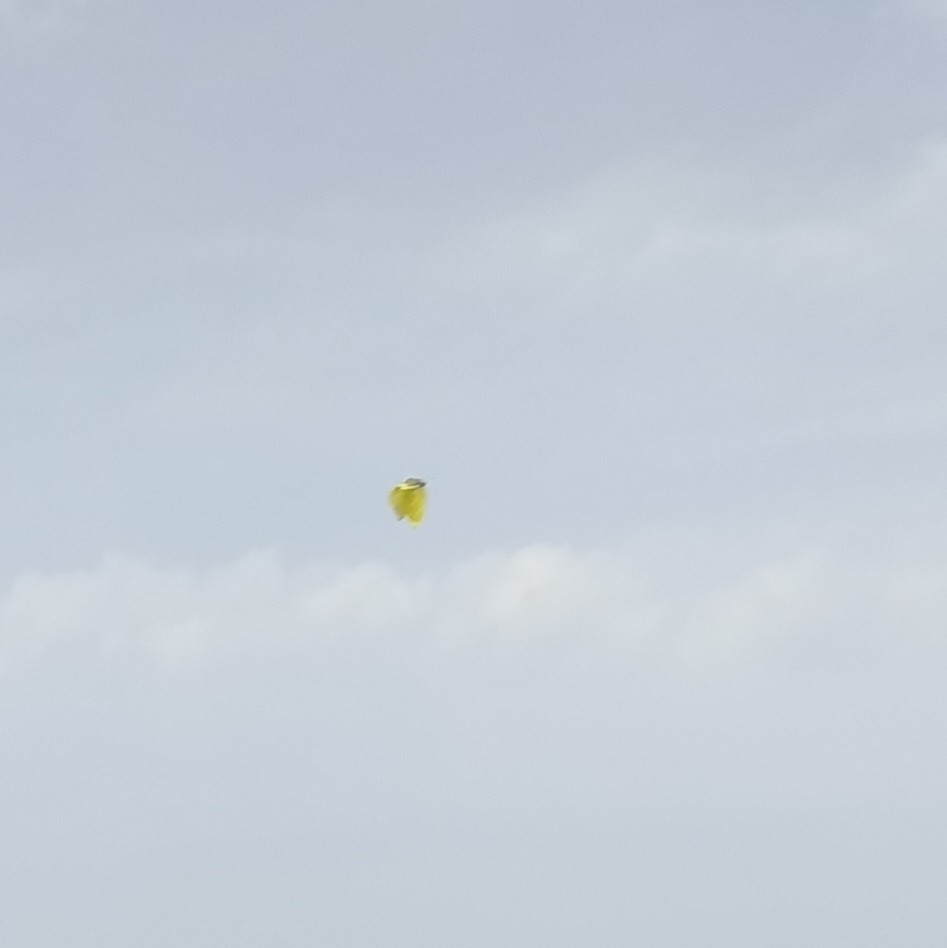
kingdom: Animalia
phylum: Arthropoda
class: Insecta
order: Lepidoptera
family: Pieridae
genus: Gonepteryx
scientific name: Gonepteryx rhamni
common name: Brimstone
